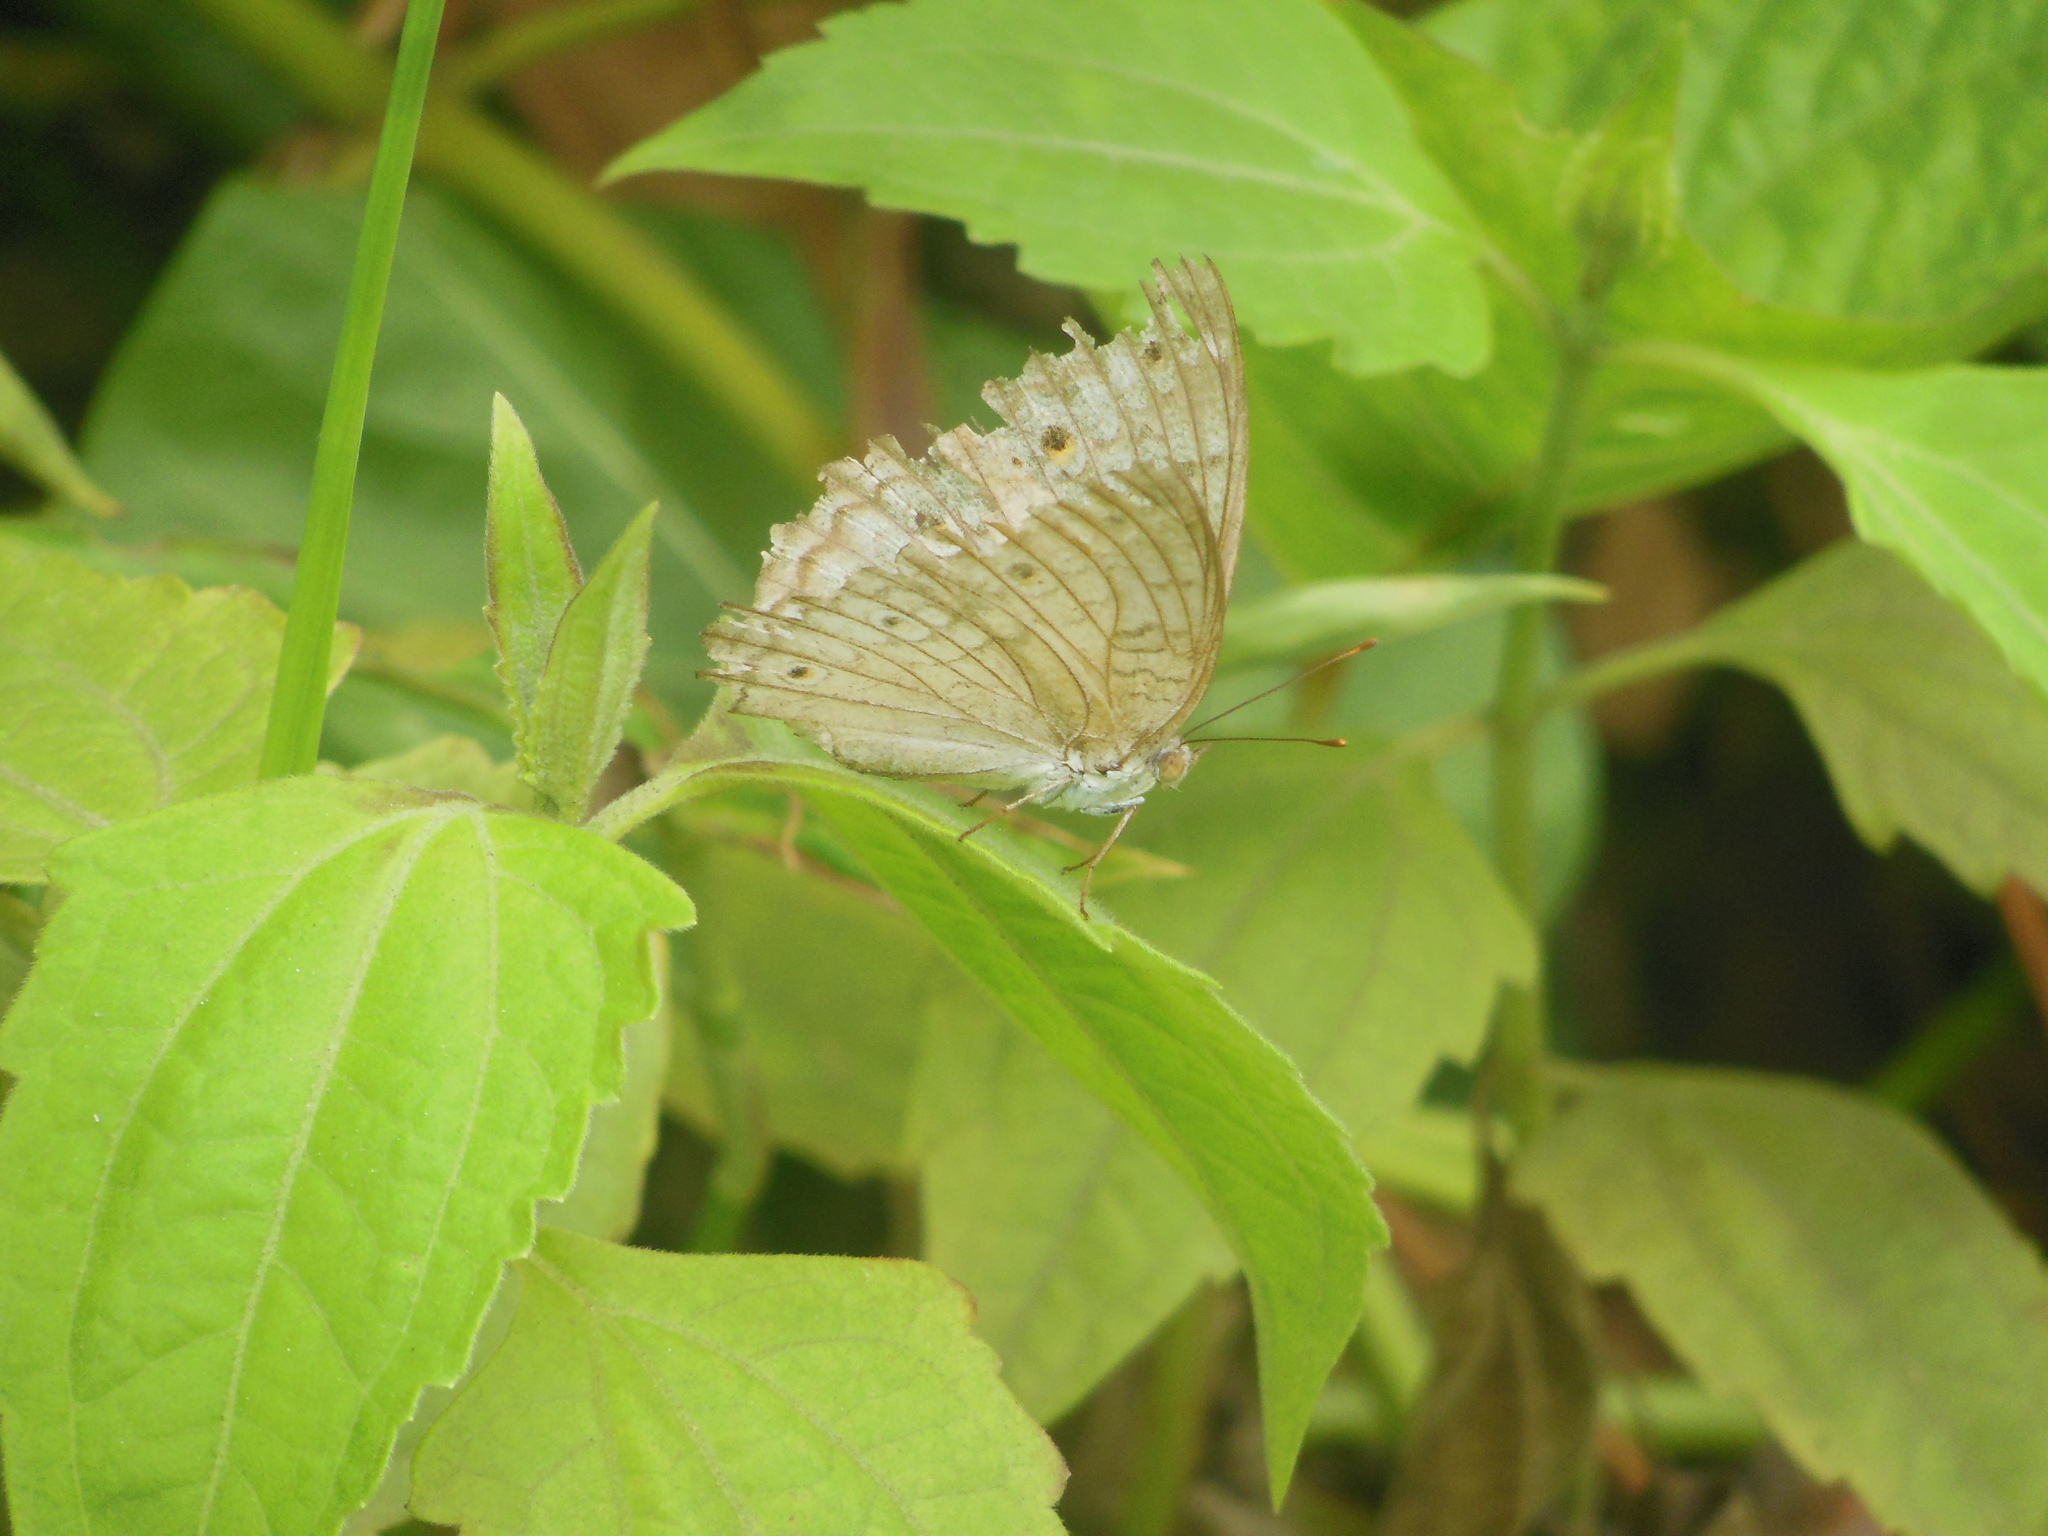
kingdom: Animalia
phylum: Arthropoda
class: Insecta
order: Lepidoptera
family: Nymphalidae
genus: Junonia
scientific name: Junonia atlites
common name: Grey pansy
